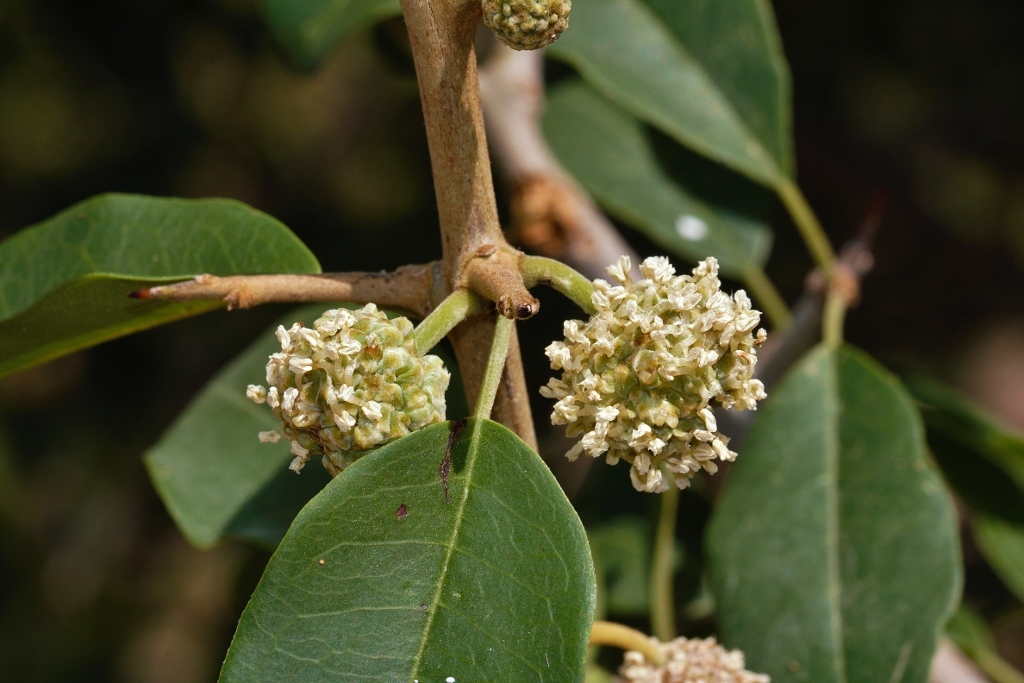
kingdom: Plantae
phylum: Tracheophyta
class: Magnoliopsida
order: Rosales
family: Moraceae
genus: Maclura
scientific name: Maclura africana
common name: African osage orange
